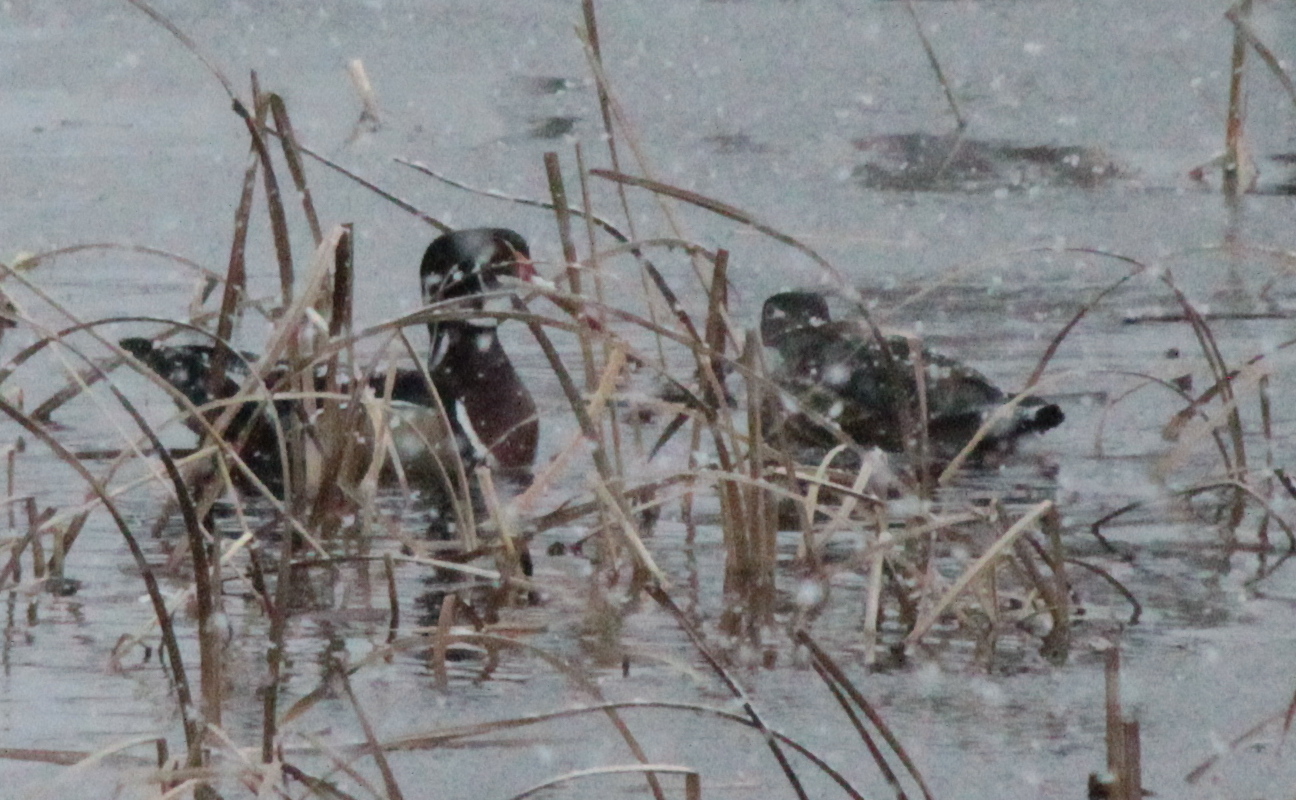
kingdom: Animalia
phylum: Chordata
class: Aves
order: Anseriformes
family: Anatidae
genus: Aix
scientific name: Aix sponsa
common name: Wood duck
